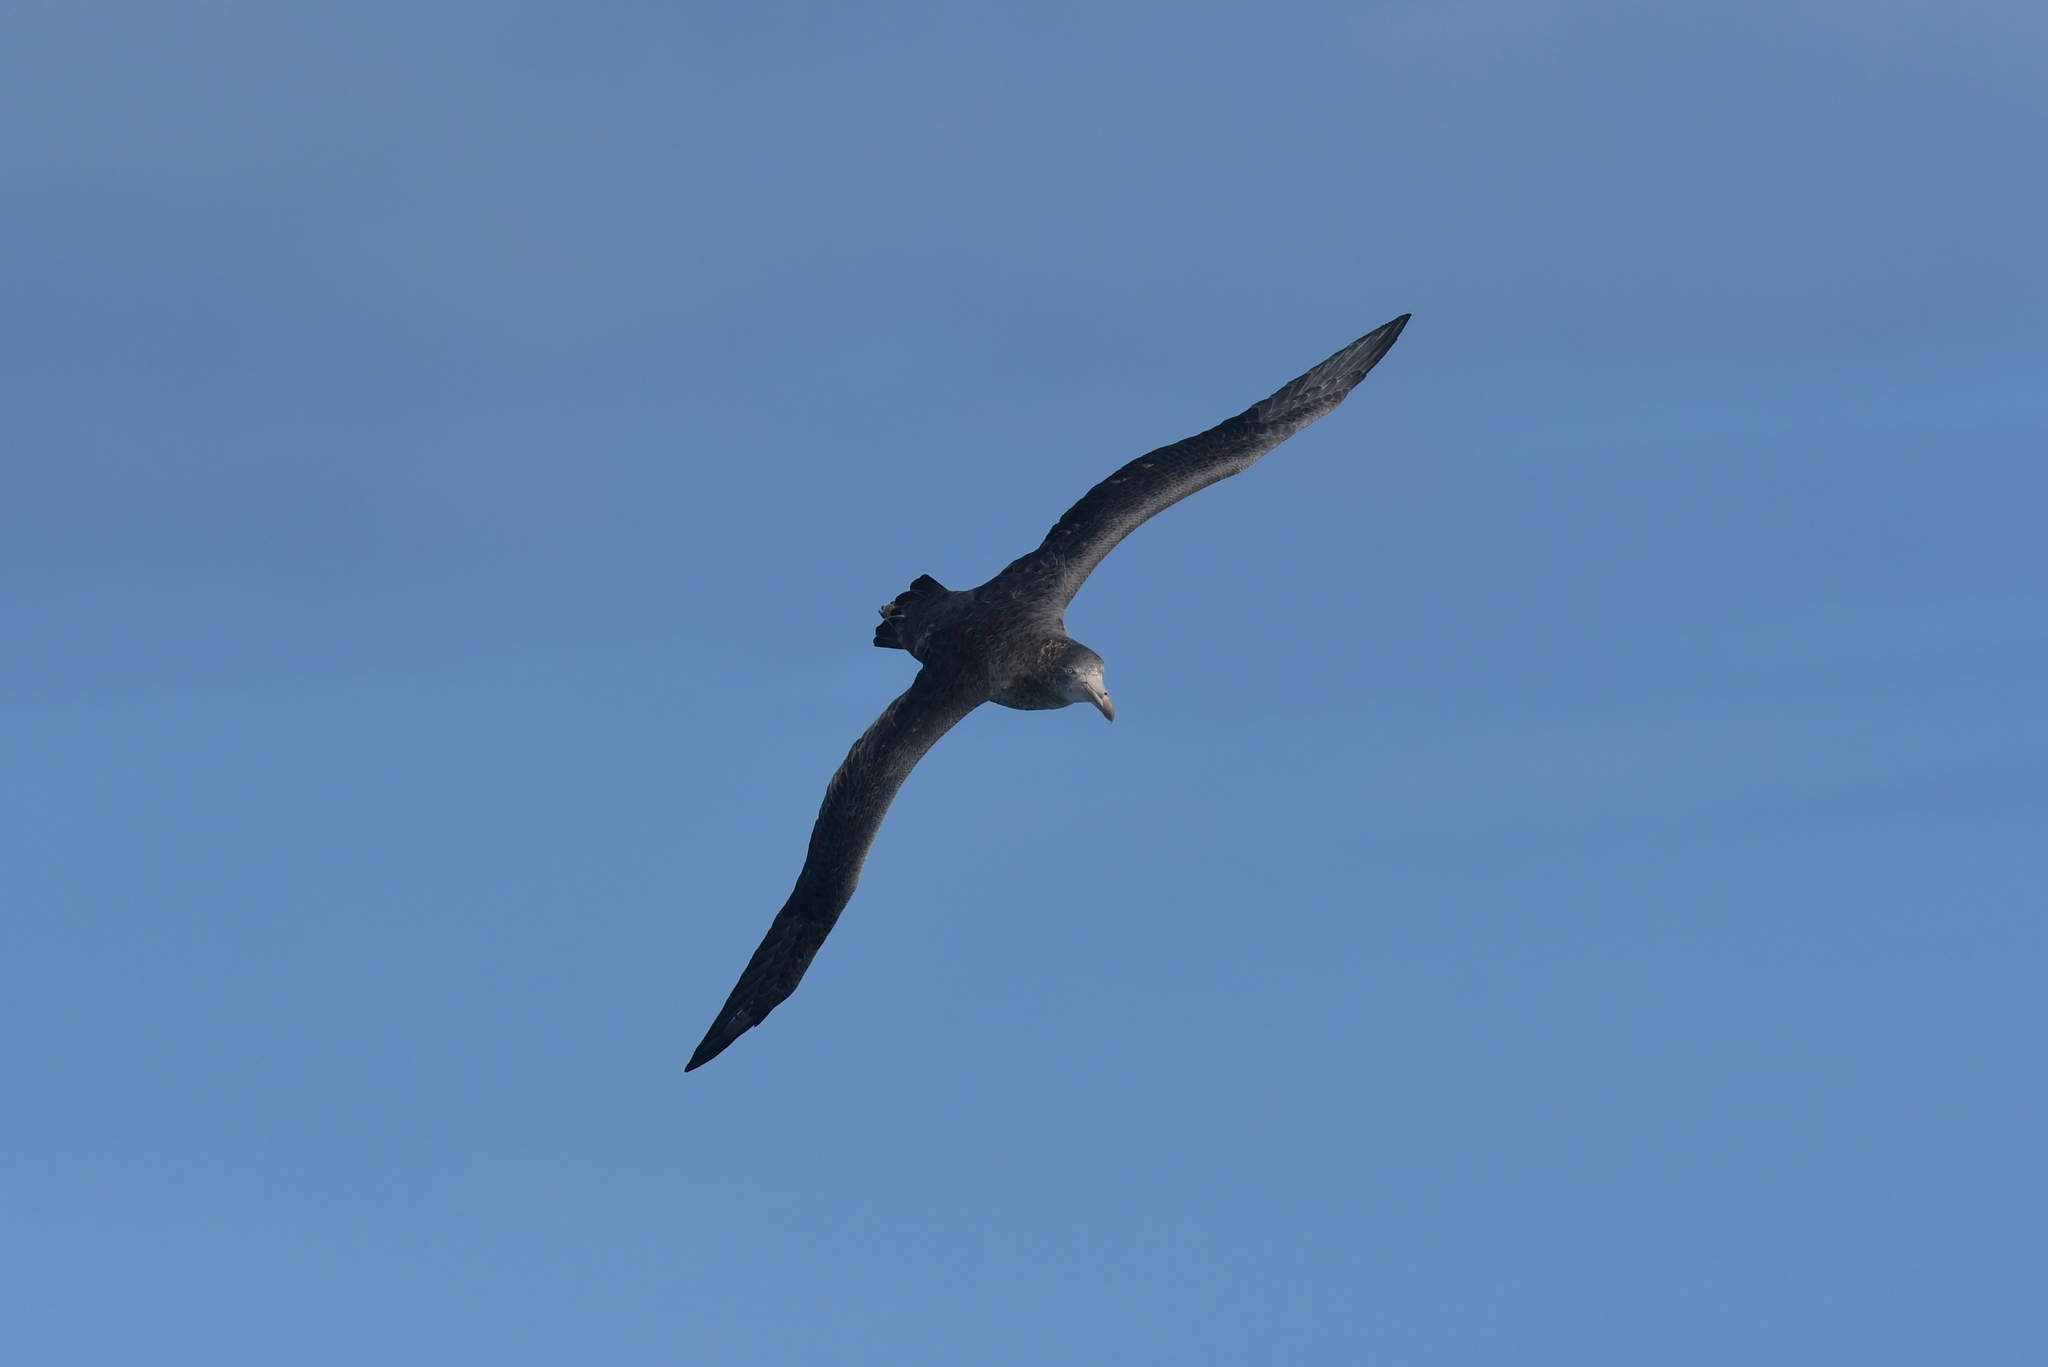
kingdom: Animalia
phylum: Chordata
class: Aves
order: Procellariiformes
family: Procellariidae
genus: Macronectes
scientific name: Macronectes halli
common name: Northern giant petrel
